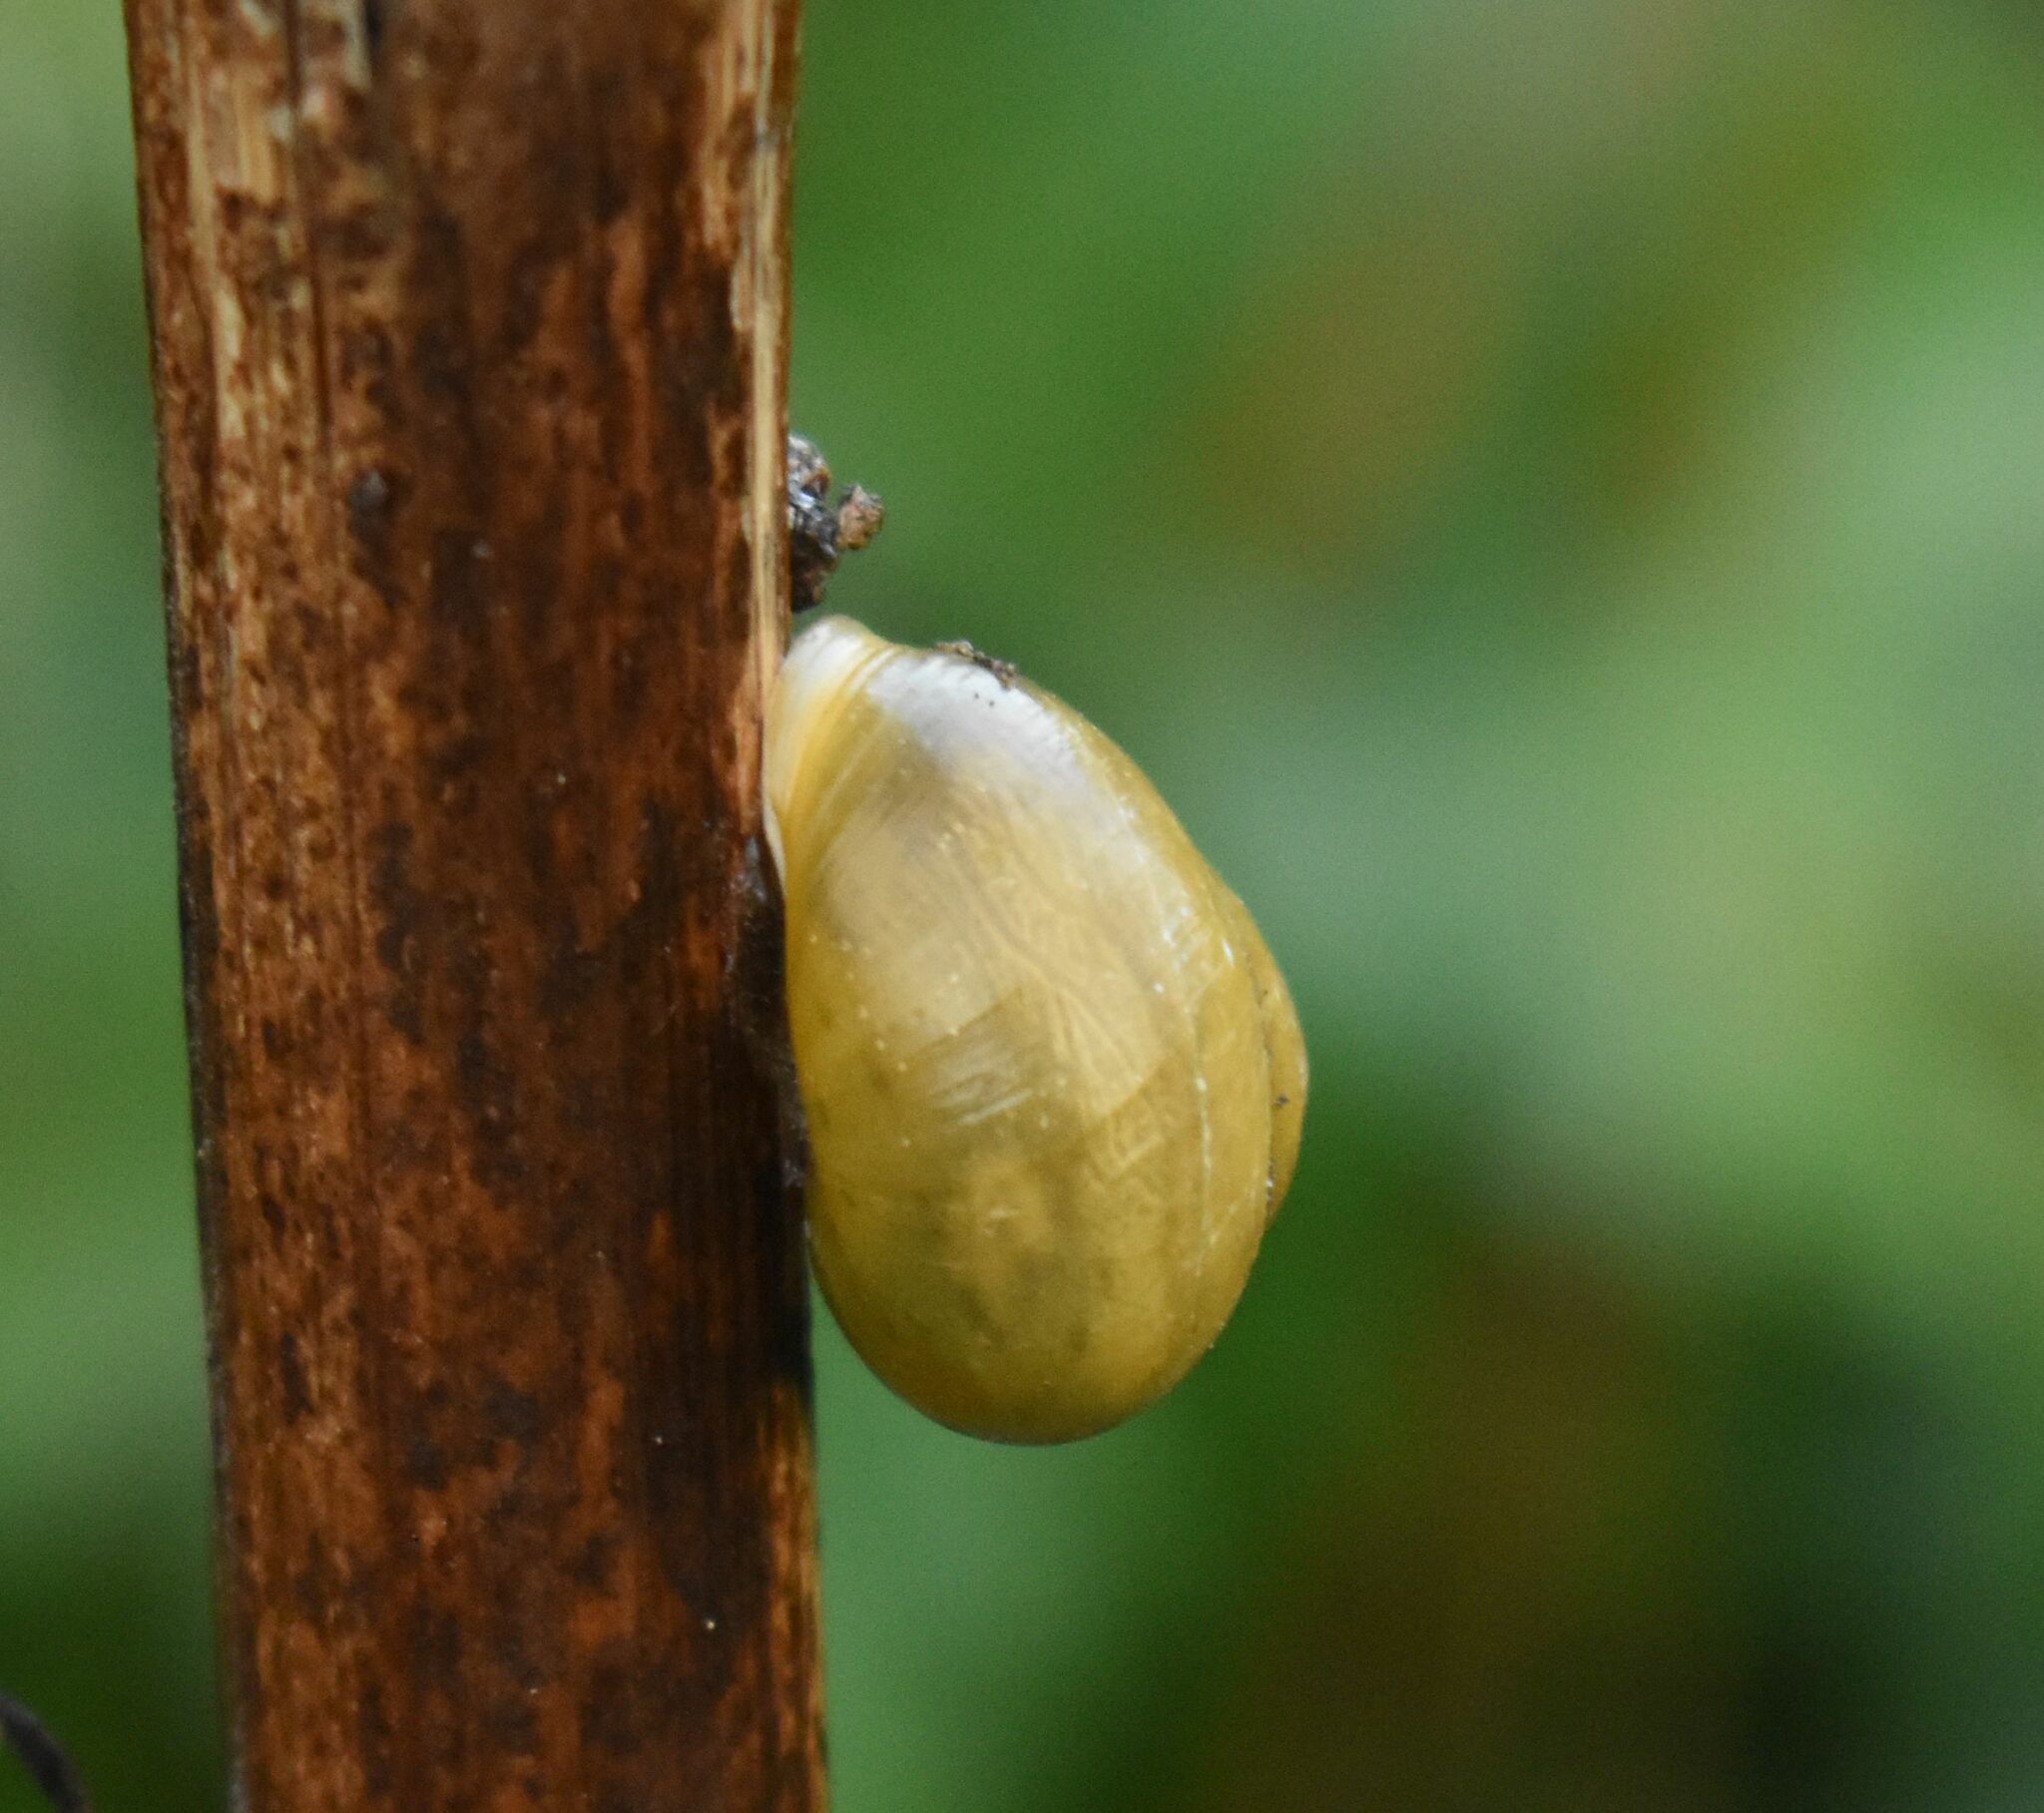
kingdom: Animalia
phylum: Mollusca
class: Gastropoda
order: Stylommatophora
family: Helicidae
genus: Cepaea
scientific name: Cepaea hortensis
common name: White-lip gardensnail
